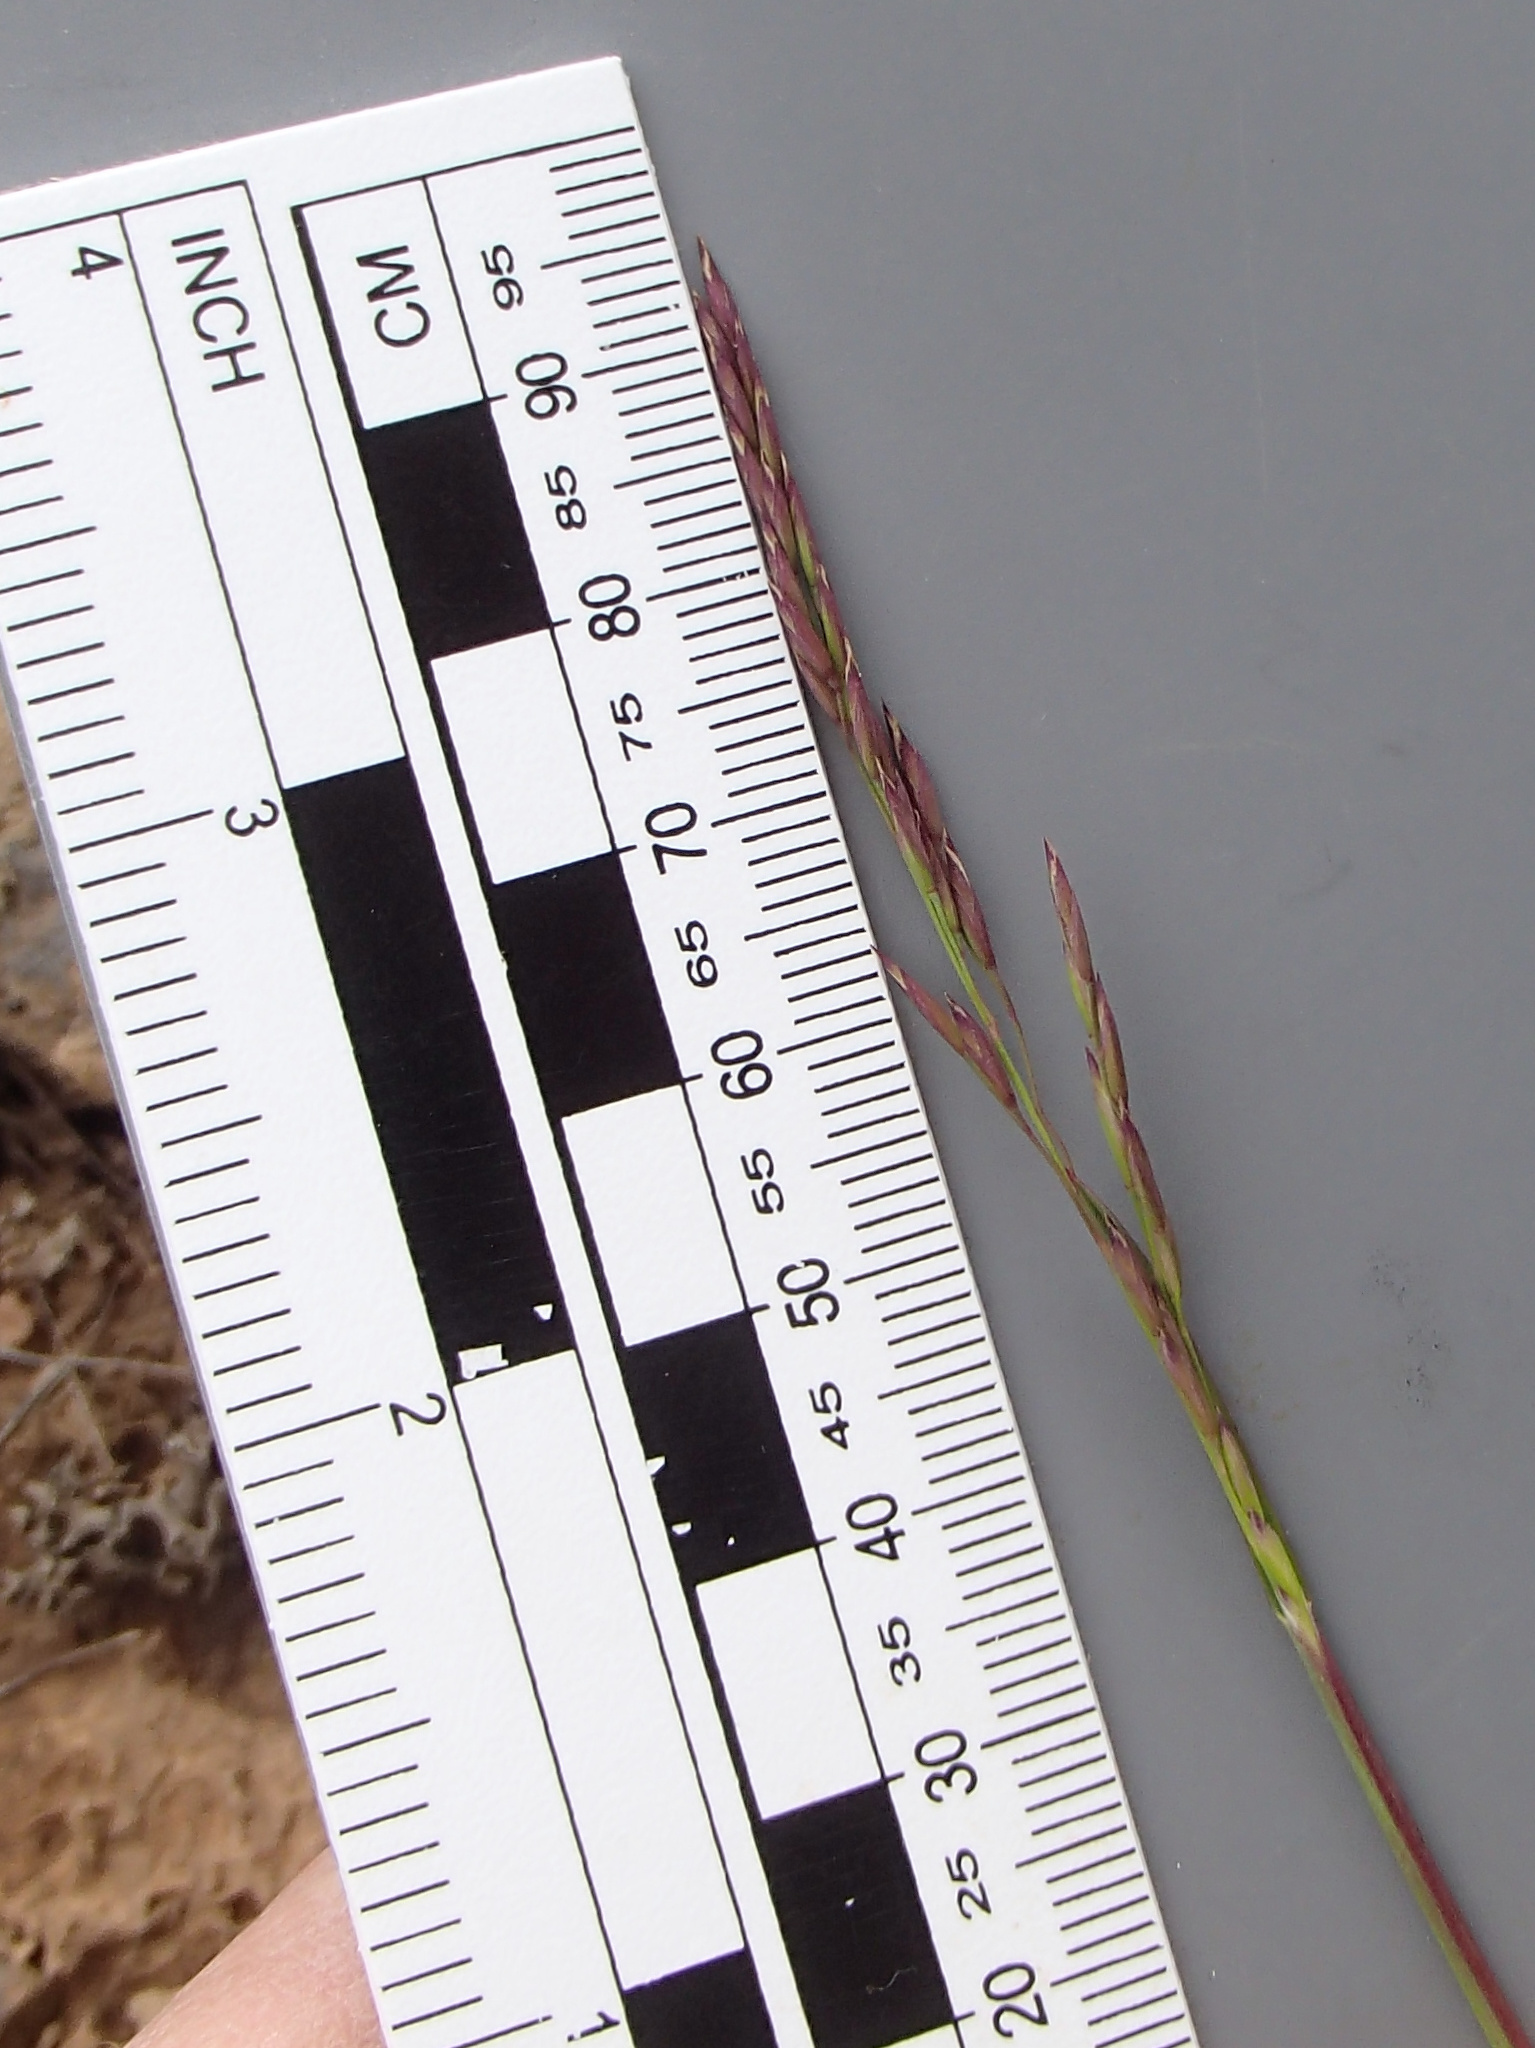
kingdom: Plantae
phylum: Tracheophyta
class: Liliopsida
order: Poales
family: Poaceae
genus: Poa
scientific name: Poa secunda
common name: Sandberg bluegrass
